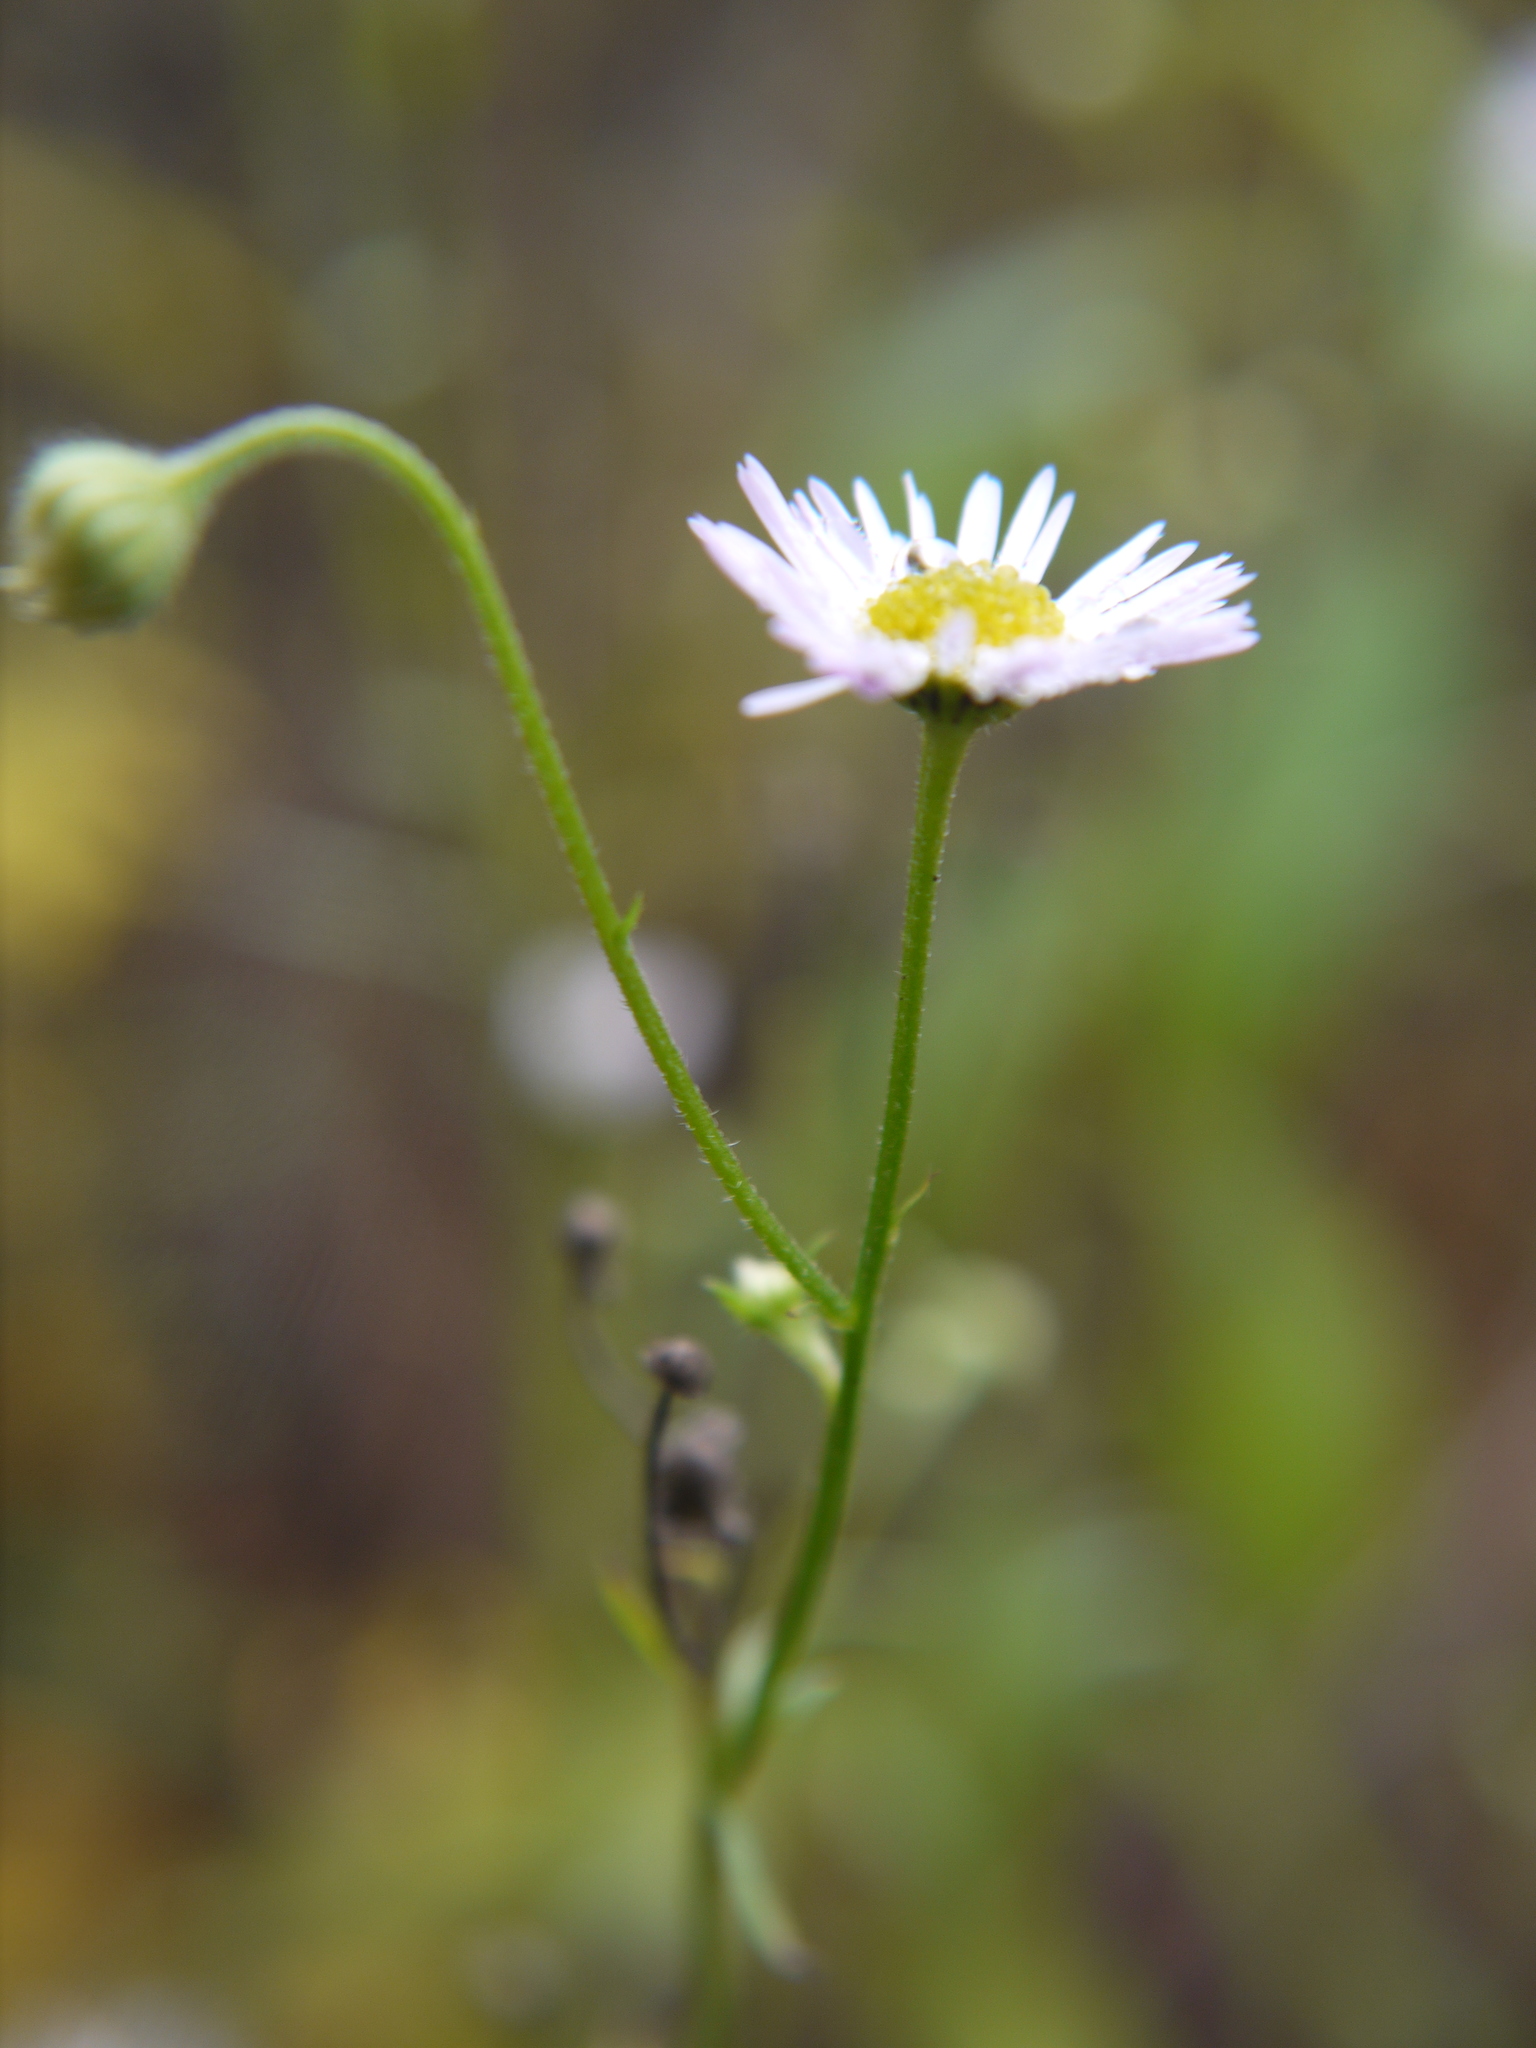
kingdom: Plantae
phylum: Tracheophyta
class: Magnoliopsida
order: Asterales
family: Asteraceae
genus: Erigeron
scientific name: Erigeron annuus
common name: Tall fleabane
